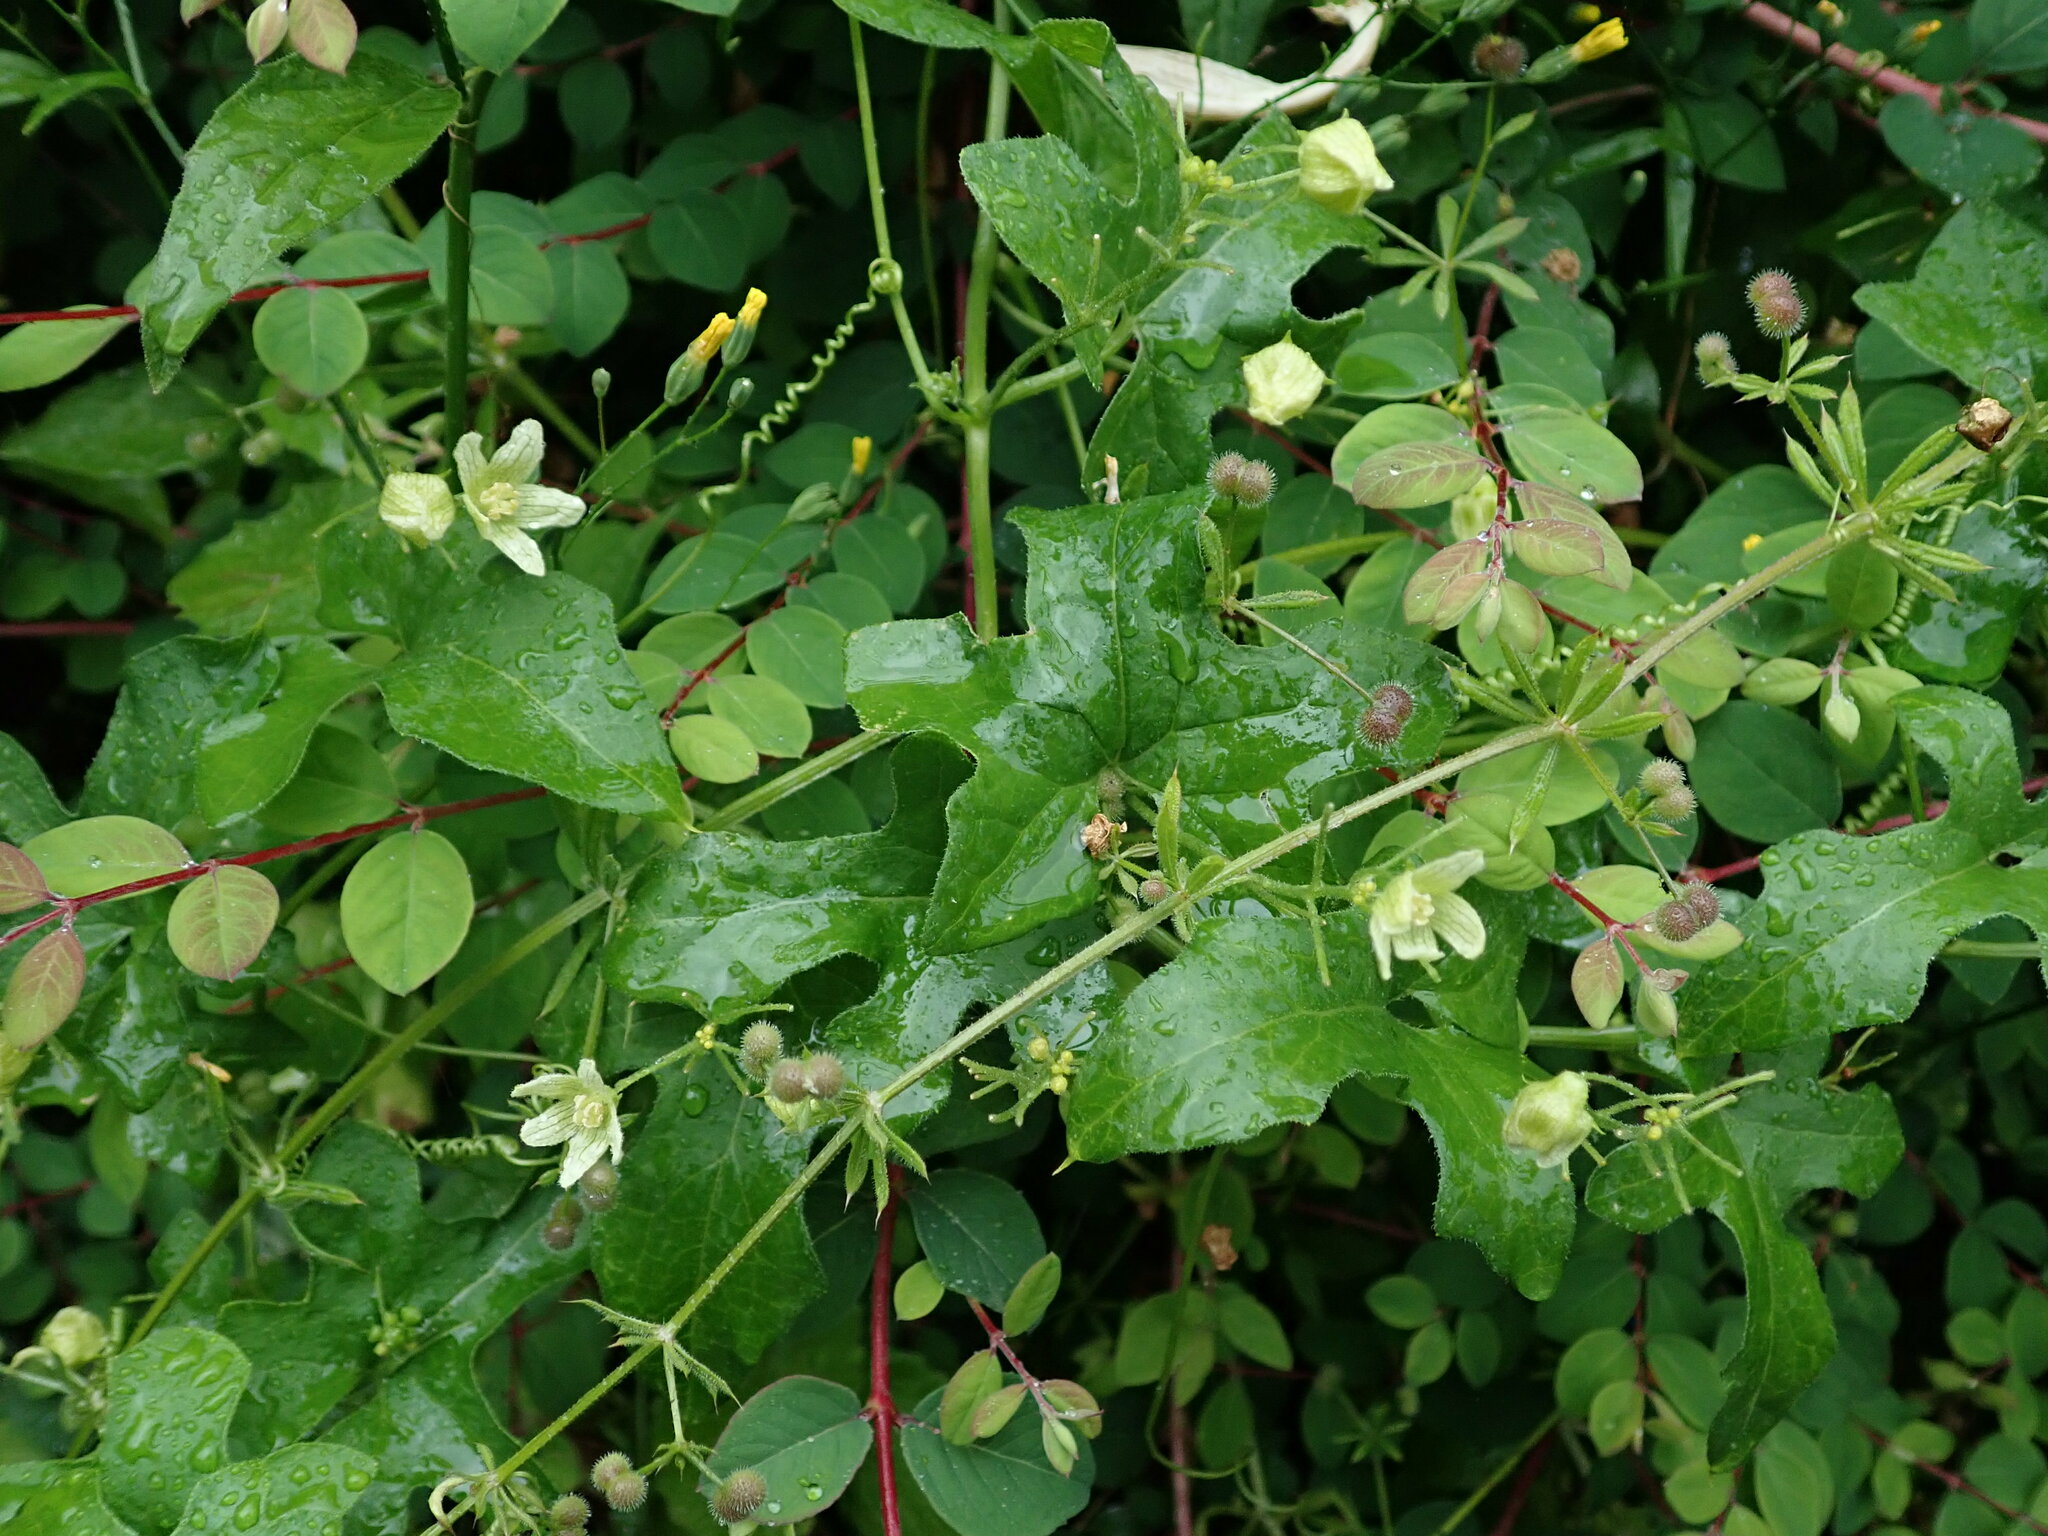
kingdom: Plantae
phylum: Tracheophyta
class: Magnoliopsida
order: Cucurbitales
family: Cucurbitaceae
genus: Bryonia
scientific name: Bryonia cretica
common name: Cretan bryony
